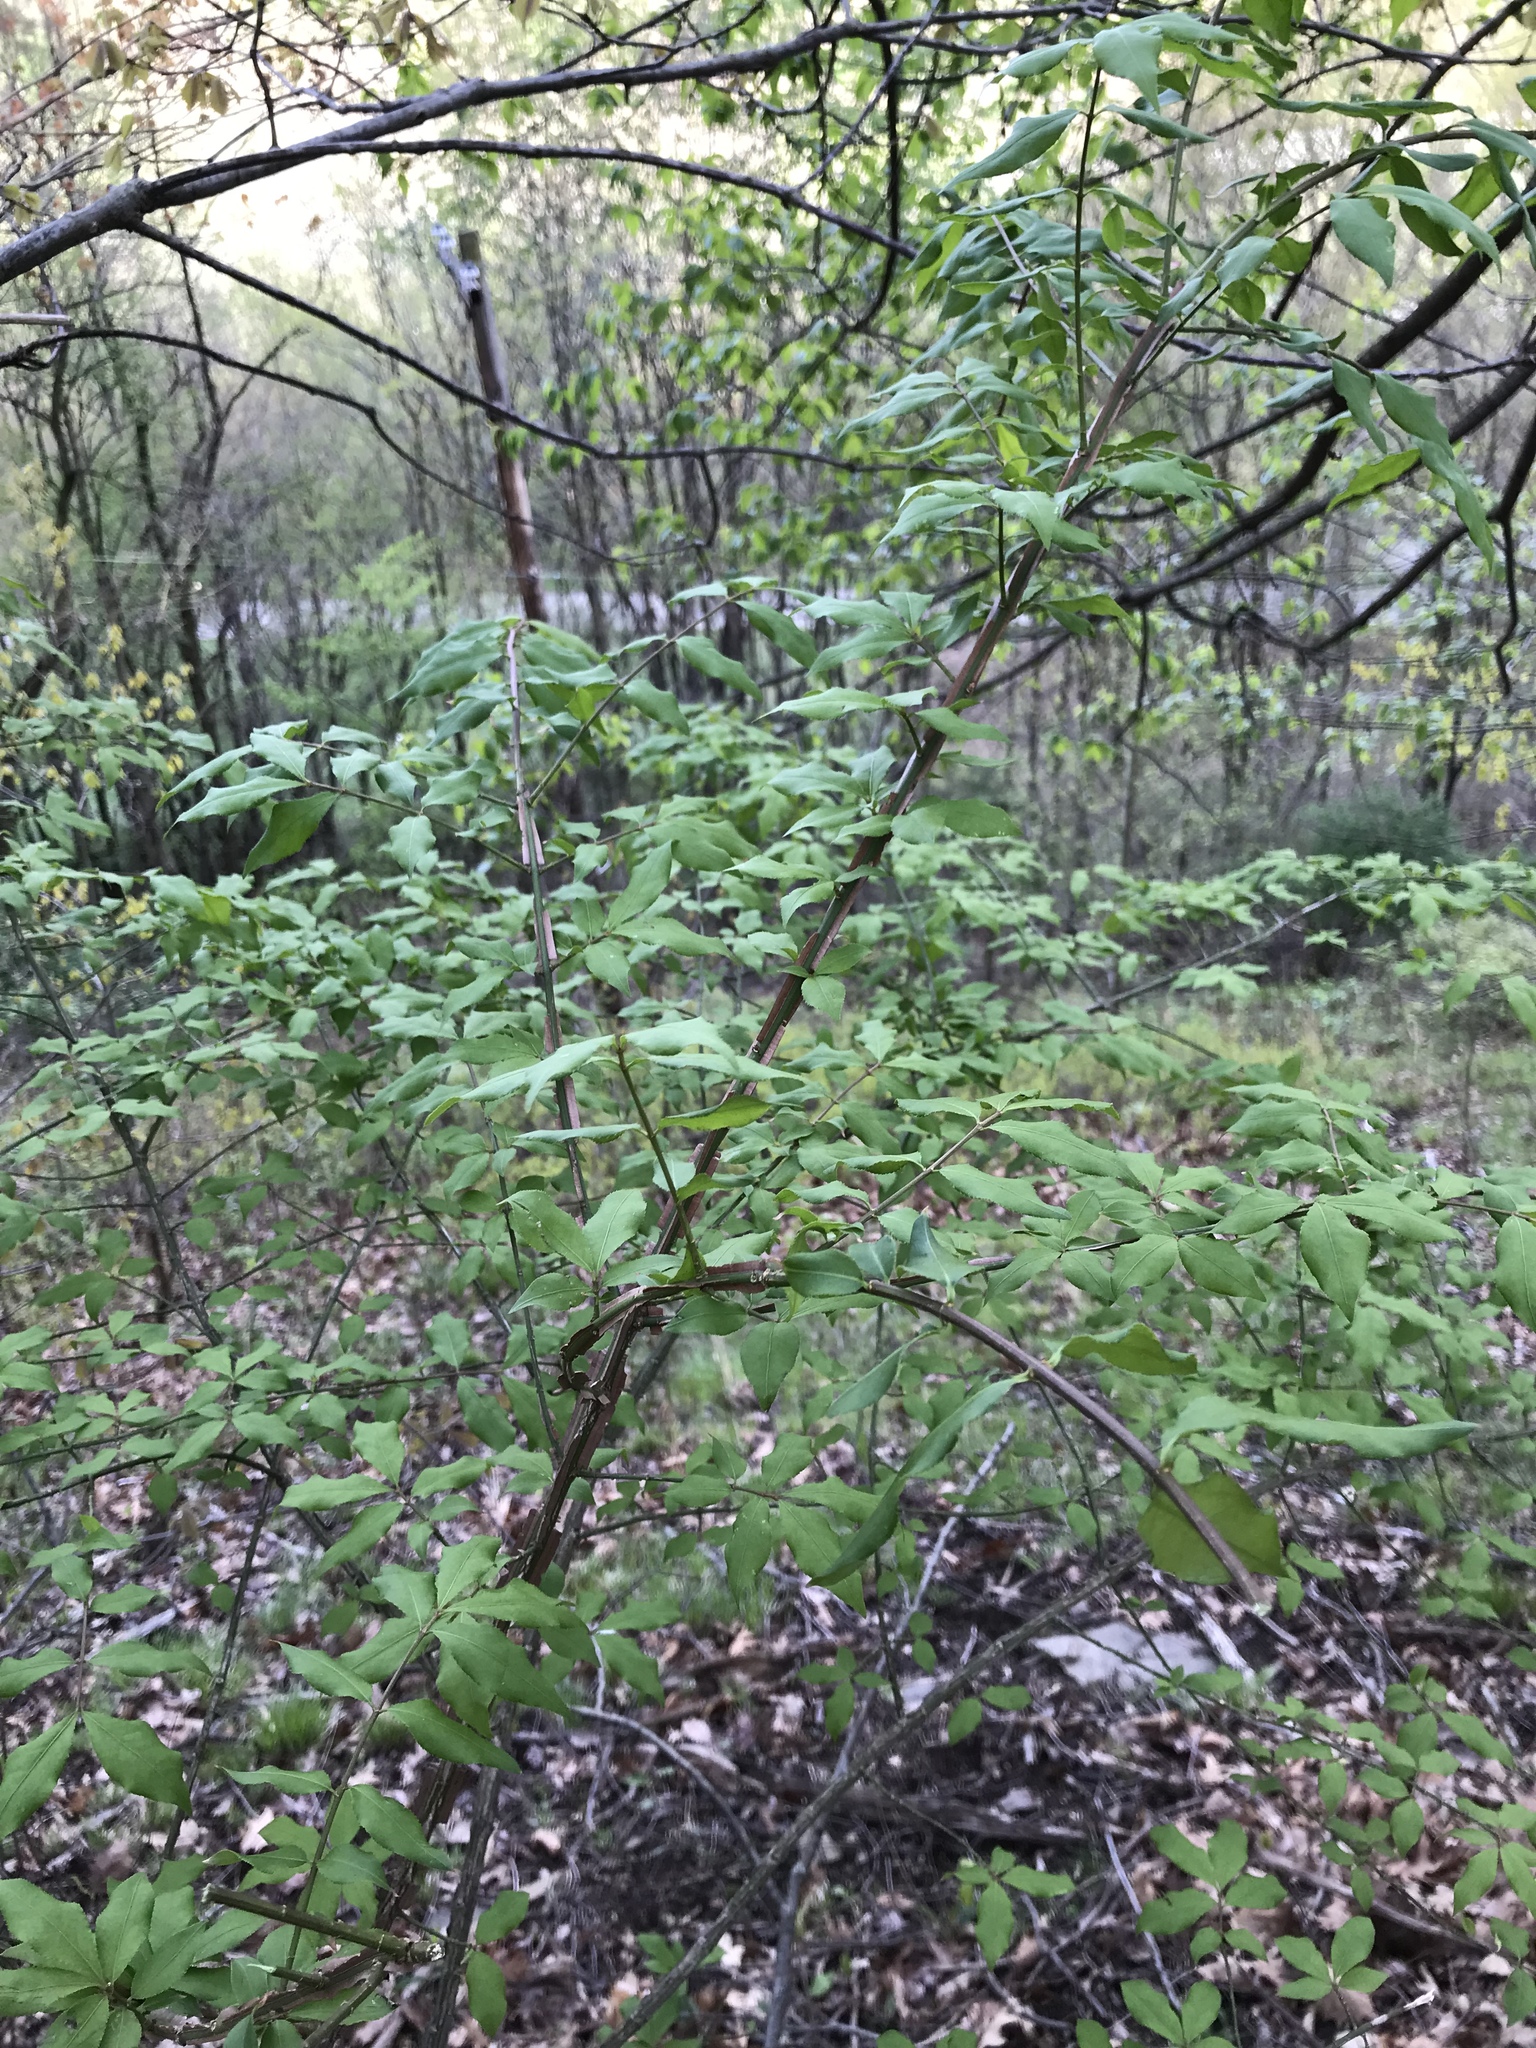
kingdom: Plantae
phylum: Tracheophyta
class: Magnoliopsida
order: Celastrales
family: Celastraceae
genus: Euonymus
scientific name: Euonymus alatus
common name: Winged euonymus
